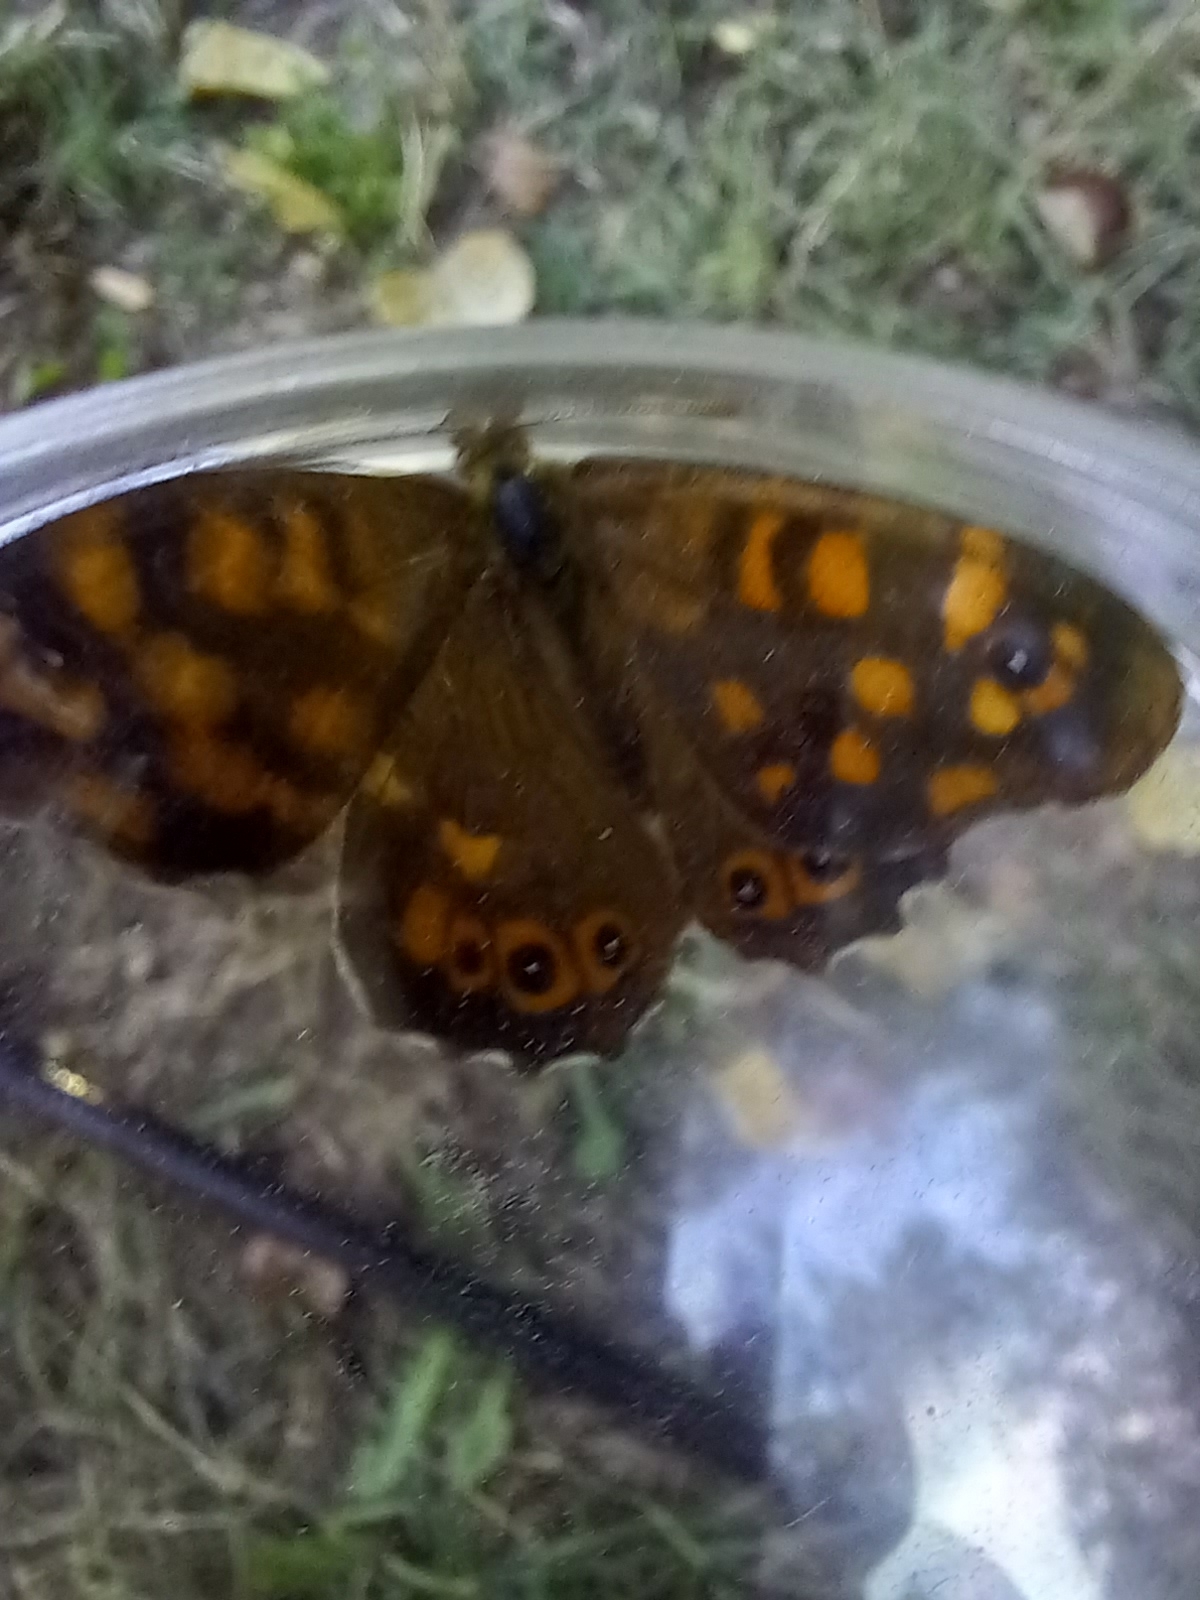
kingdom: Animalia
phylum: Arthropoda
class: Insecta
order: Lepidoptera
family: Nymphalidae
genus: Pararge
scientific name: Pararge aegeria
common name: Speckled wood
